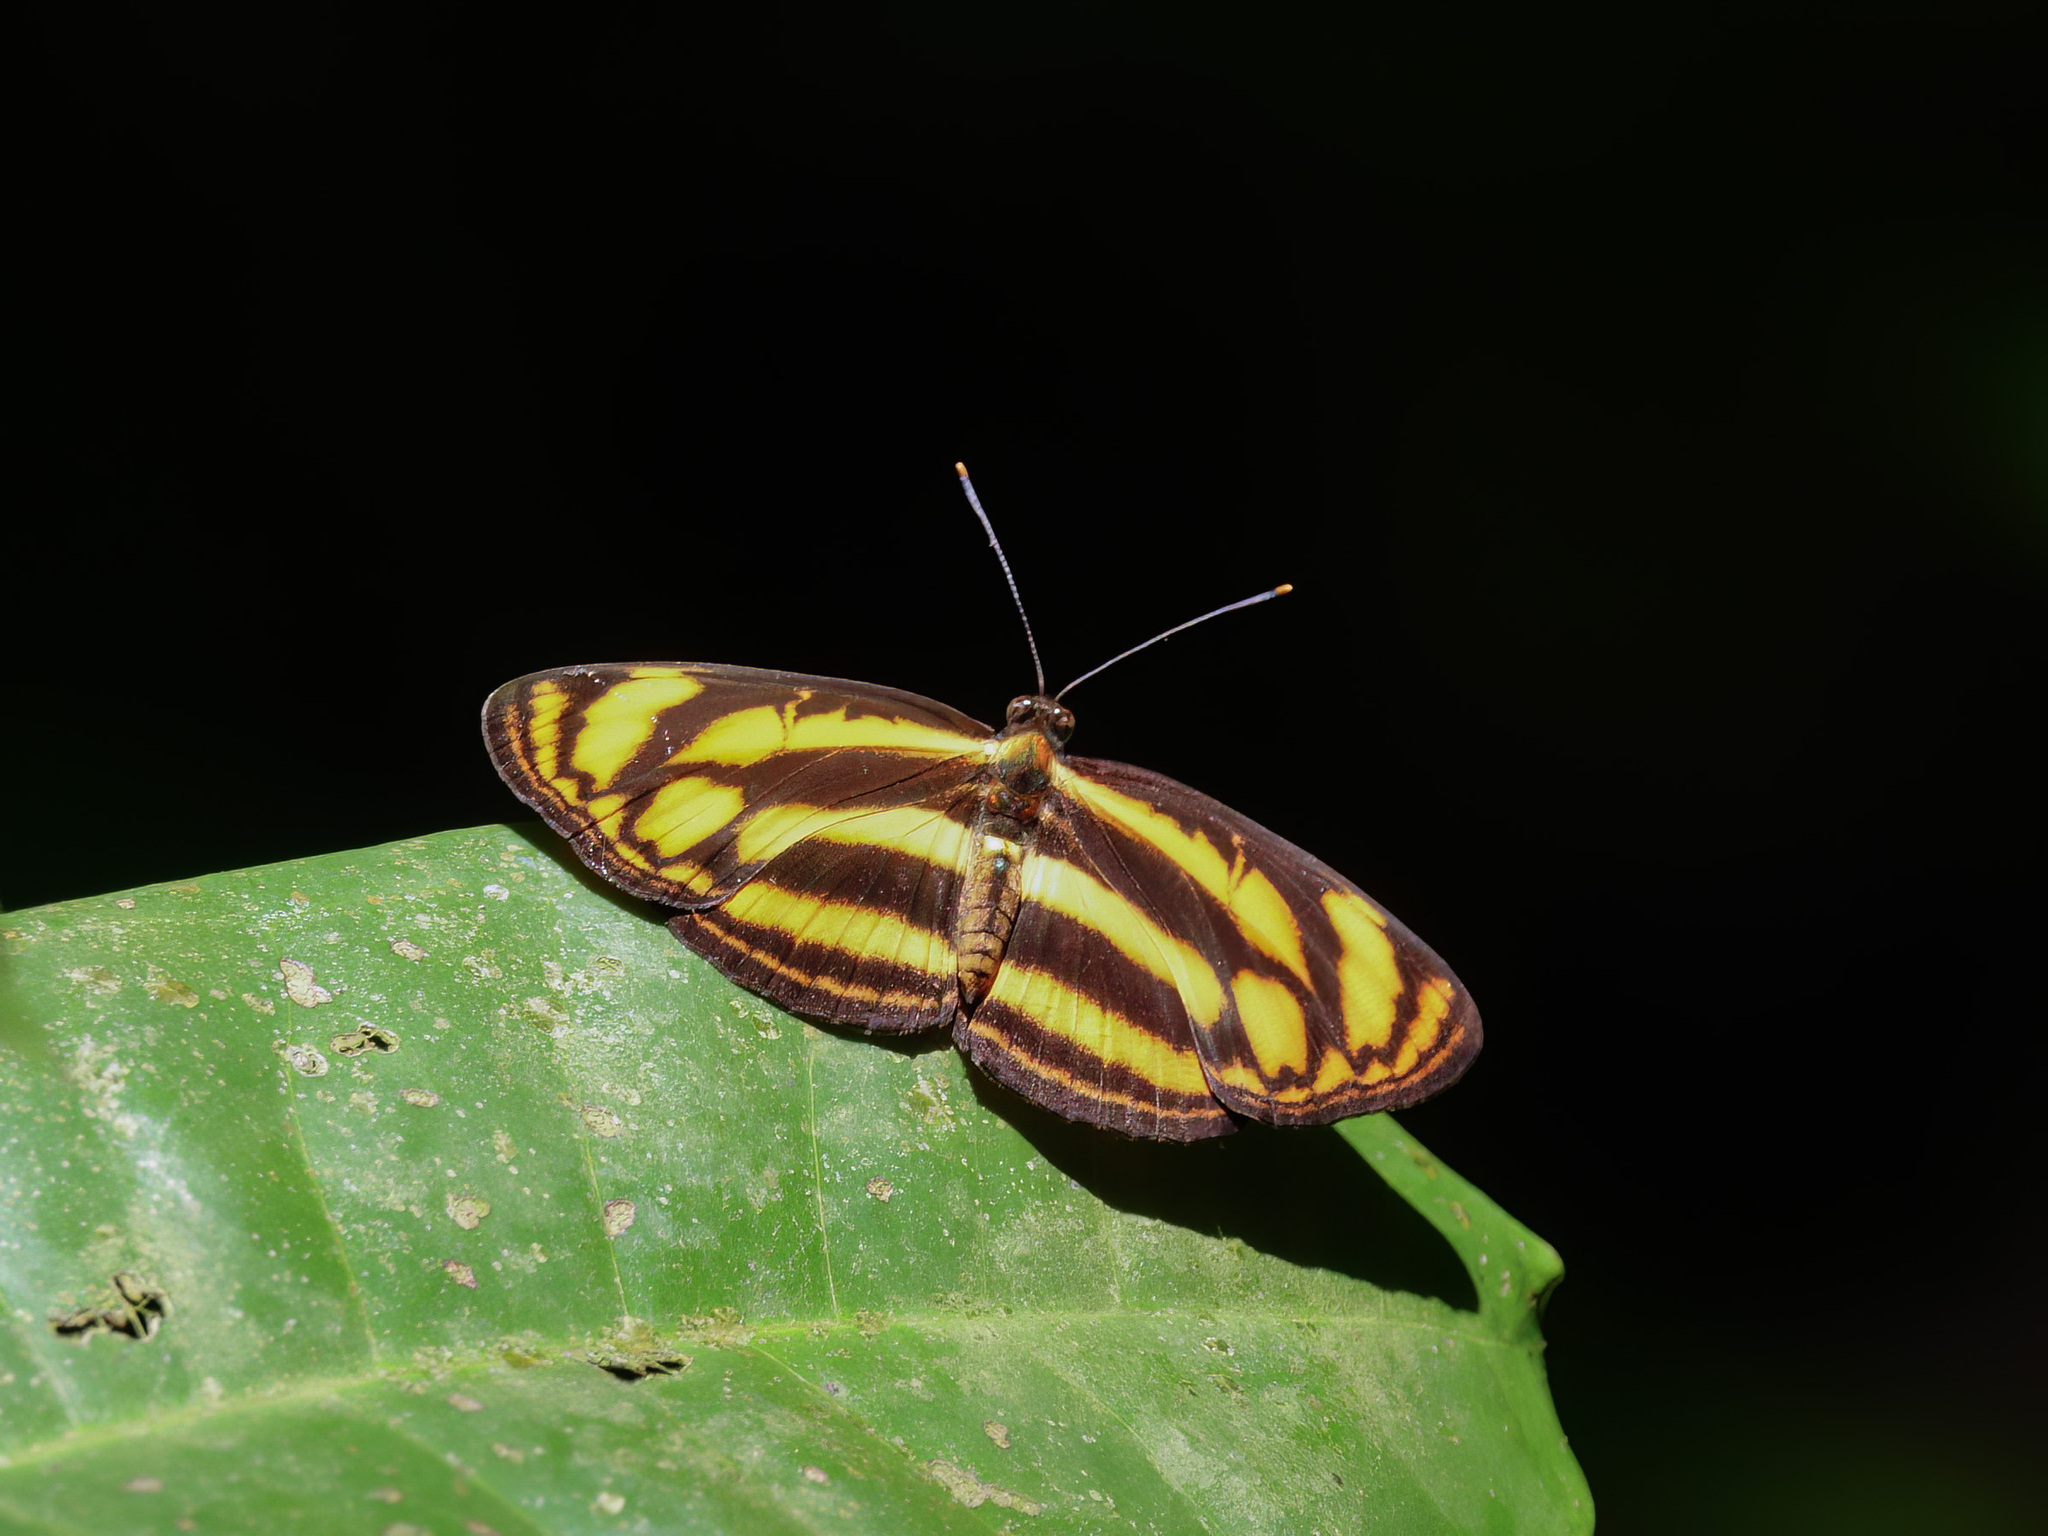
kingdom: Animalia
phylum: Arthropoda
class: Insecta
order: Lepidoptera
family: Nymphalidae
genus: Lasippa
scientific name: Lasippa tiga
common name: Malayan lascar
